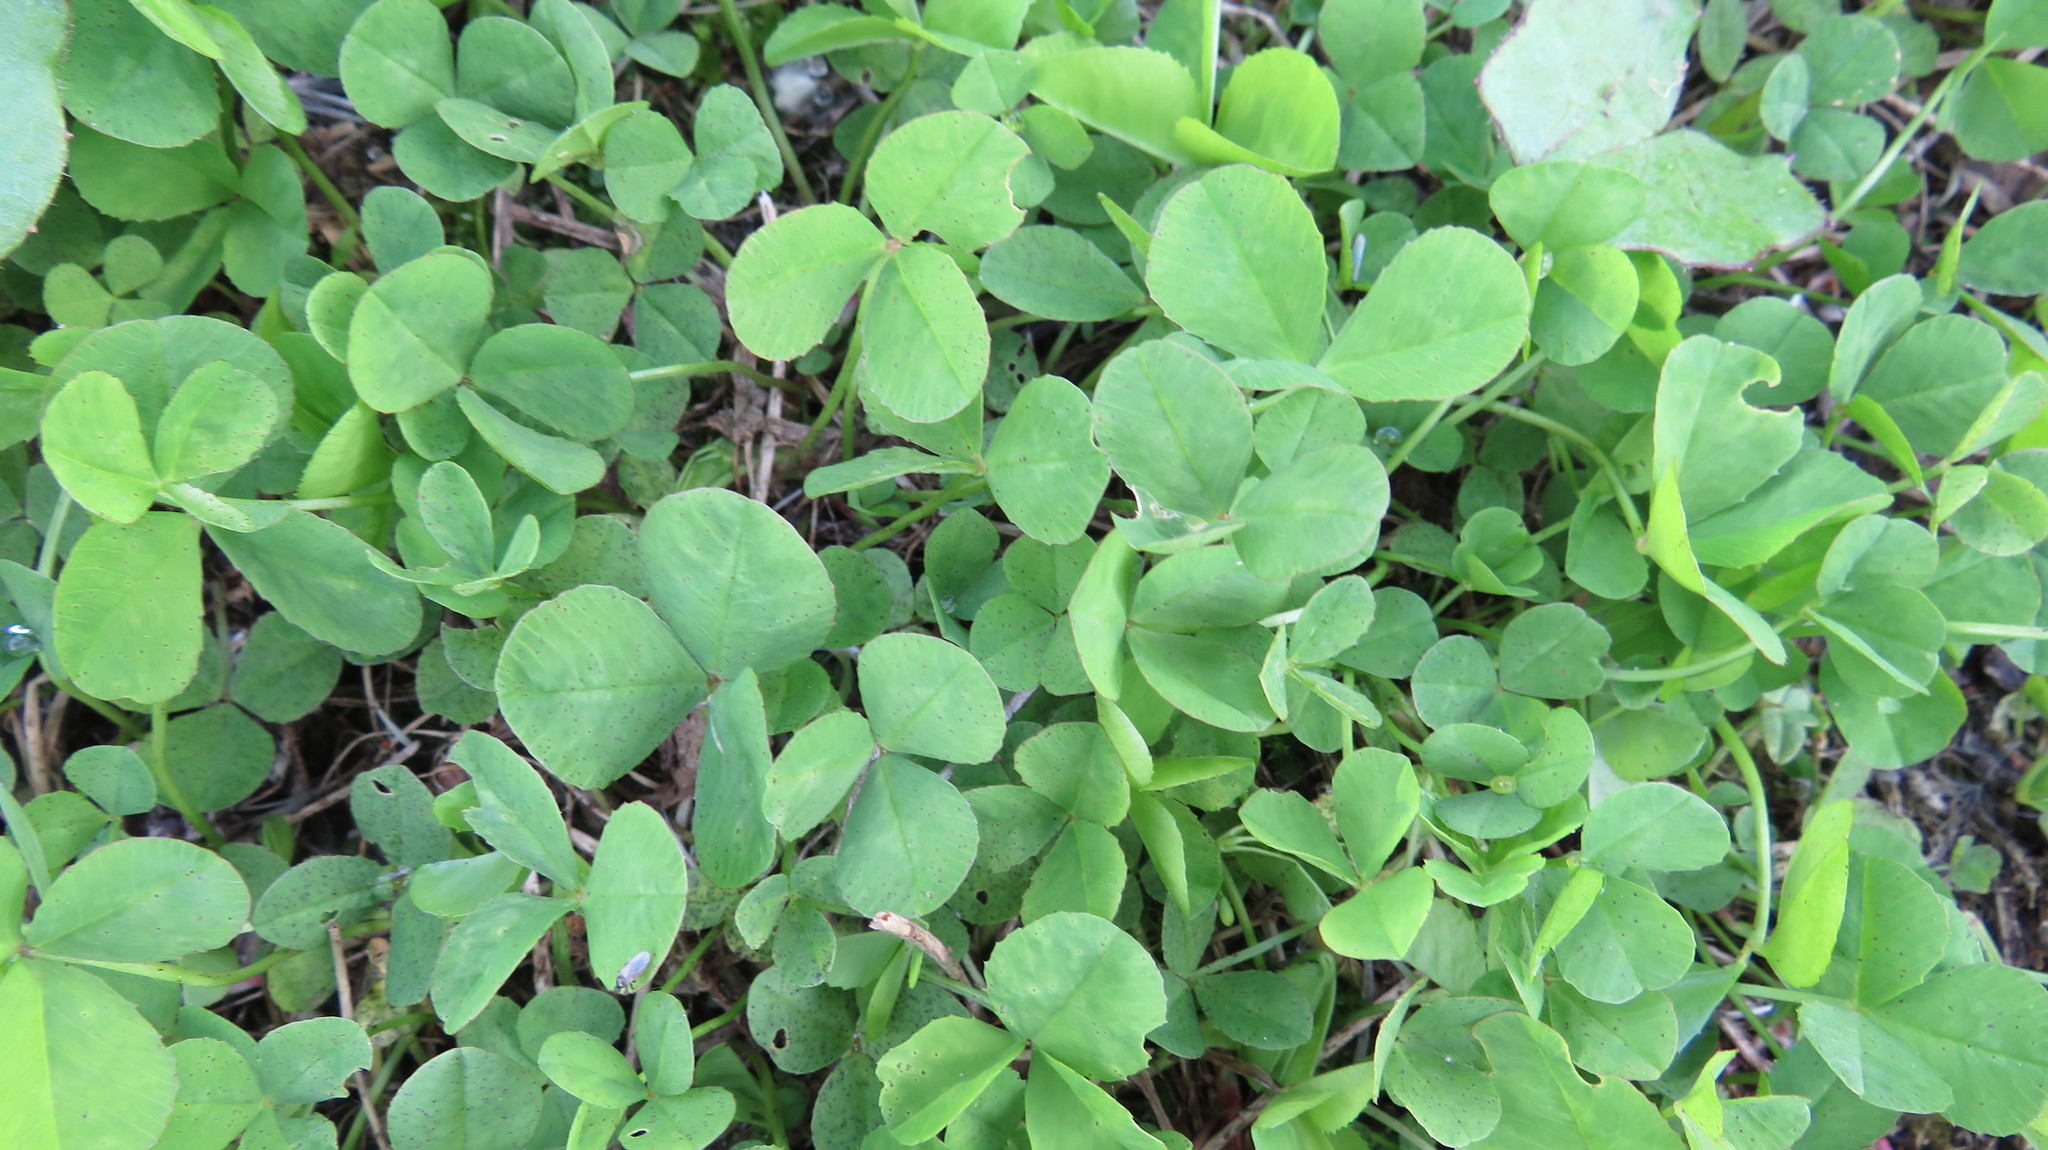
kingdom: Plantae
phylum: Tracheophyta
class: Magnoliopsida
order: Fabales
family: Fabaceae
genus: Trifolium
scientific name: Trifolium repens
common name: White clover
